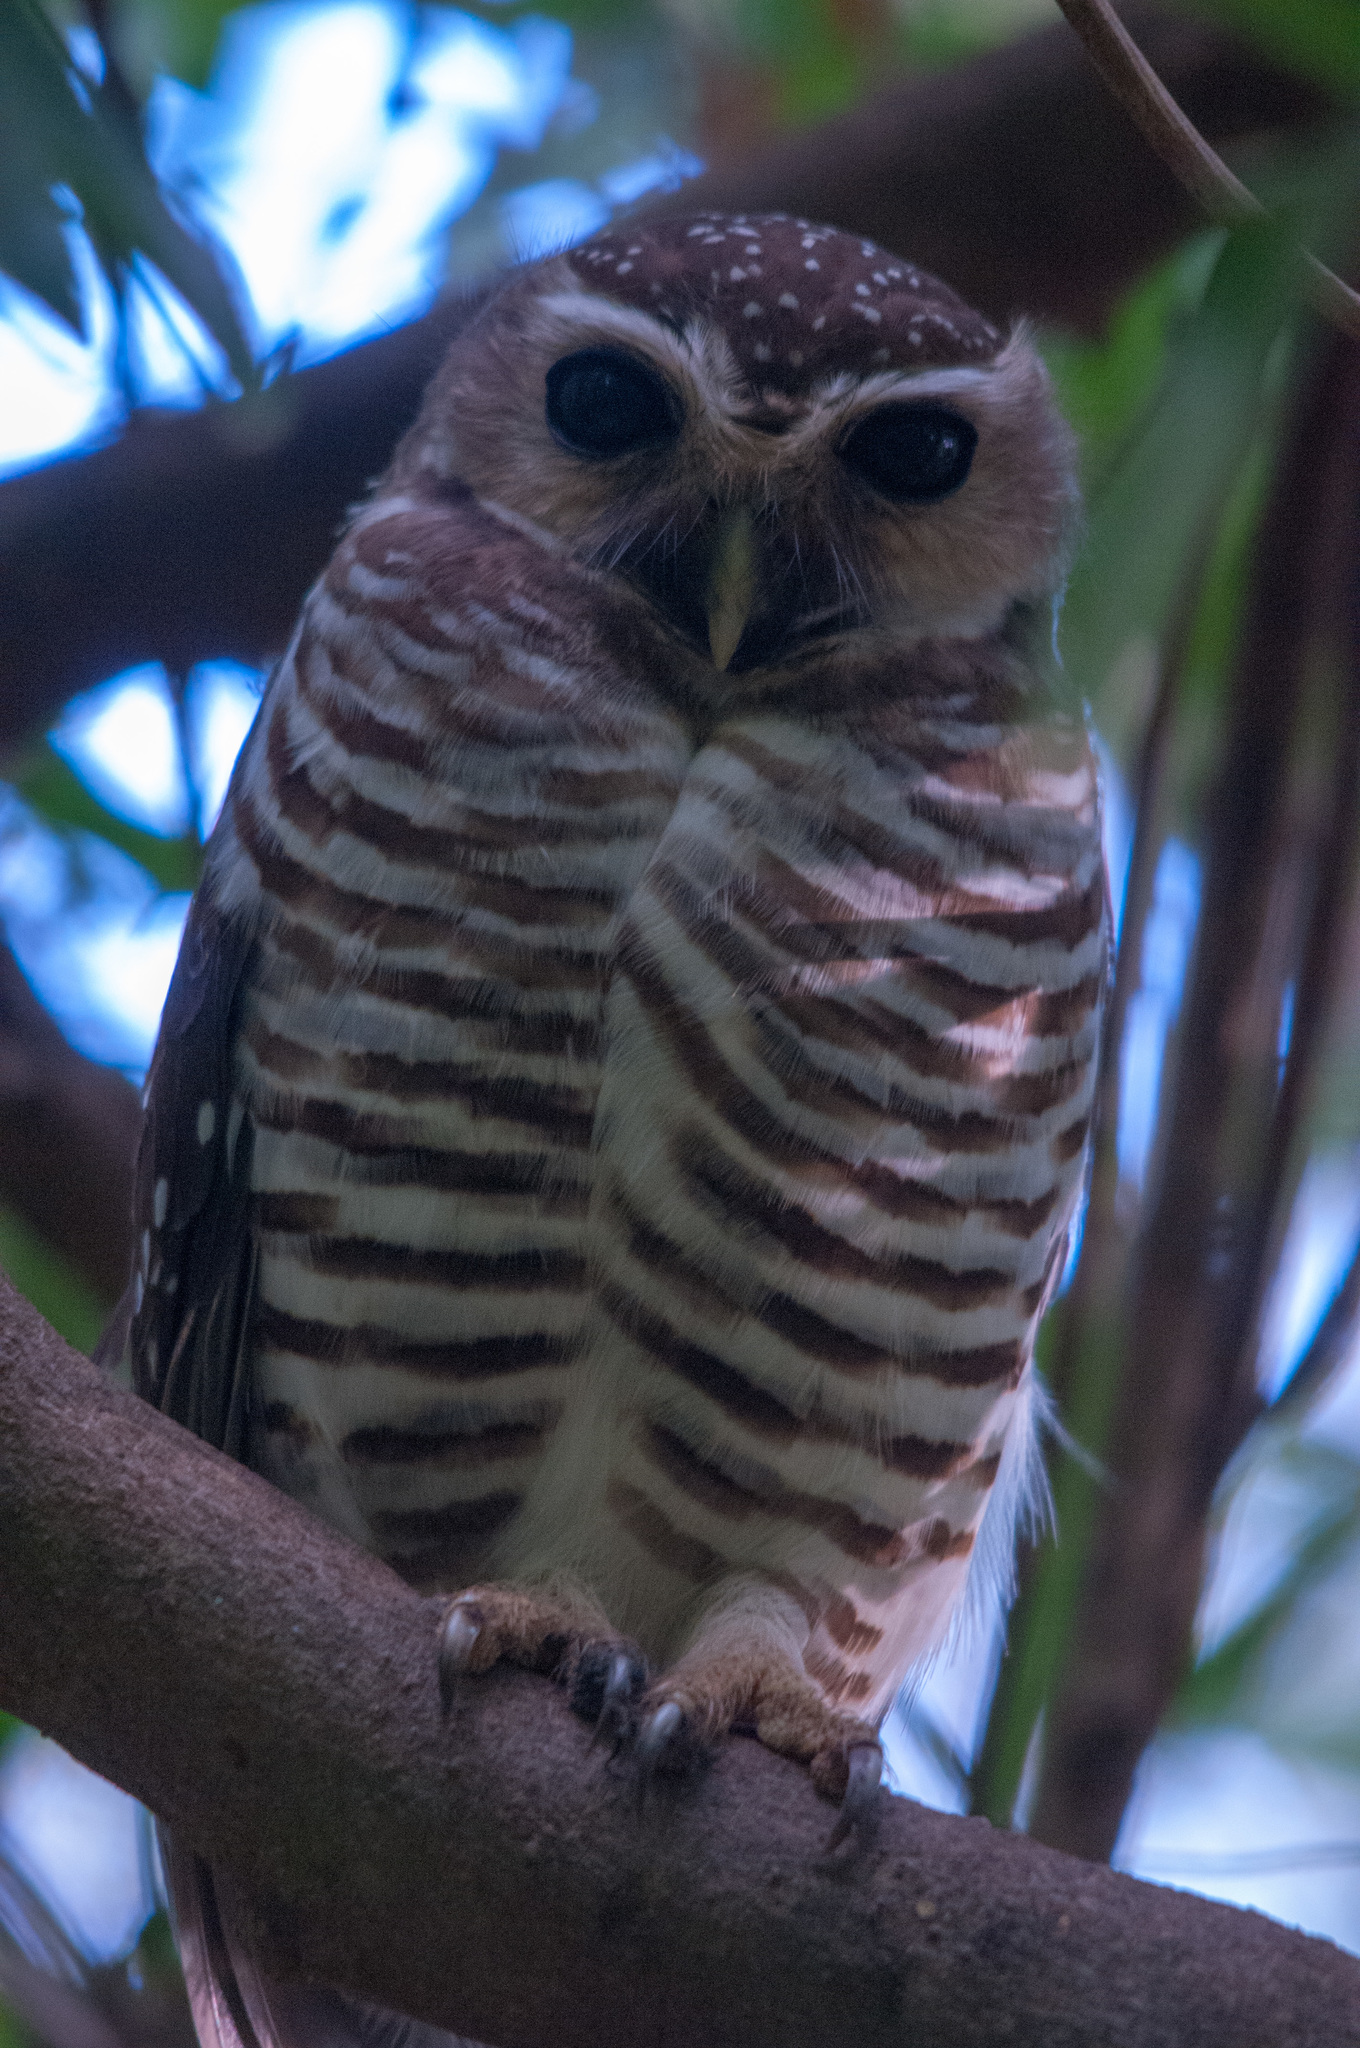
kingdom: Animalia
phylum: Chordata
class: Aves
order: Strigiformes
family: Strigidae
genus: Ninox
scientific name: Ninox superciliaris
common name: White-browed hawk-owl
